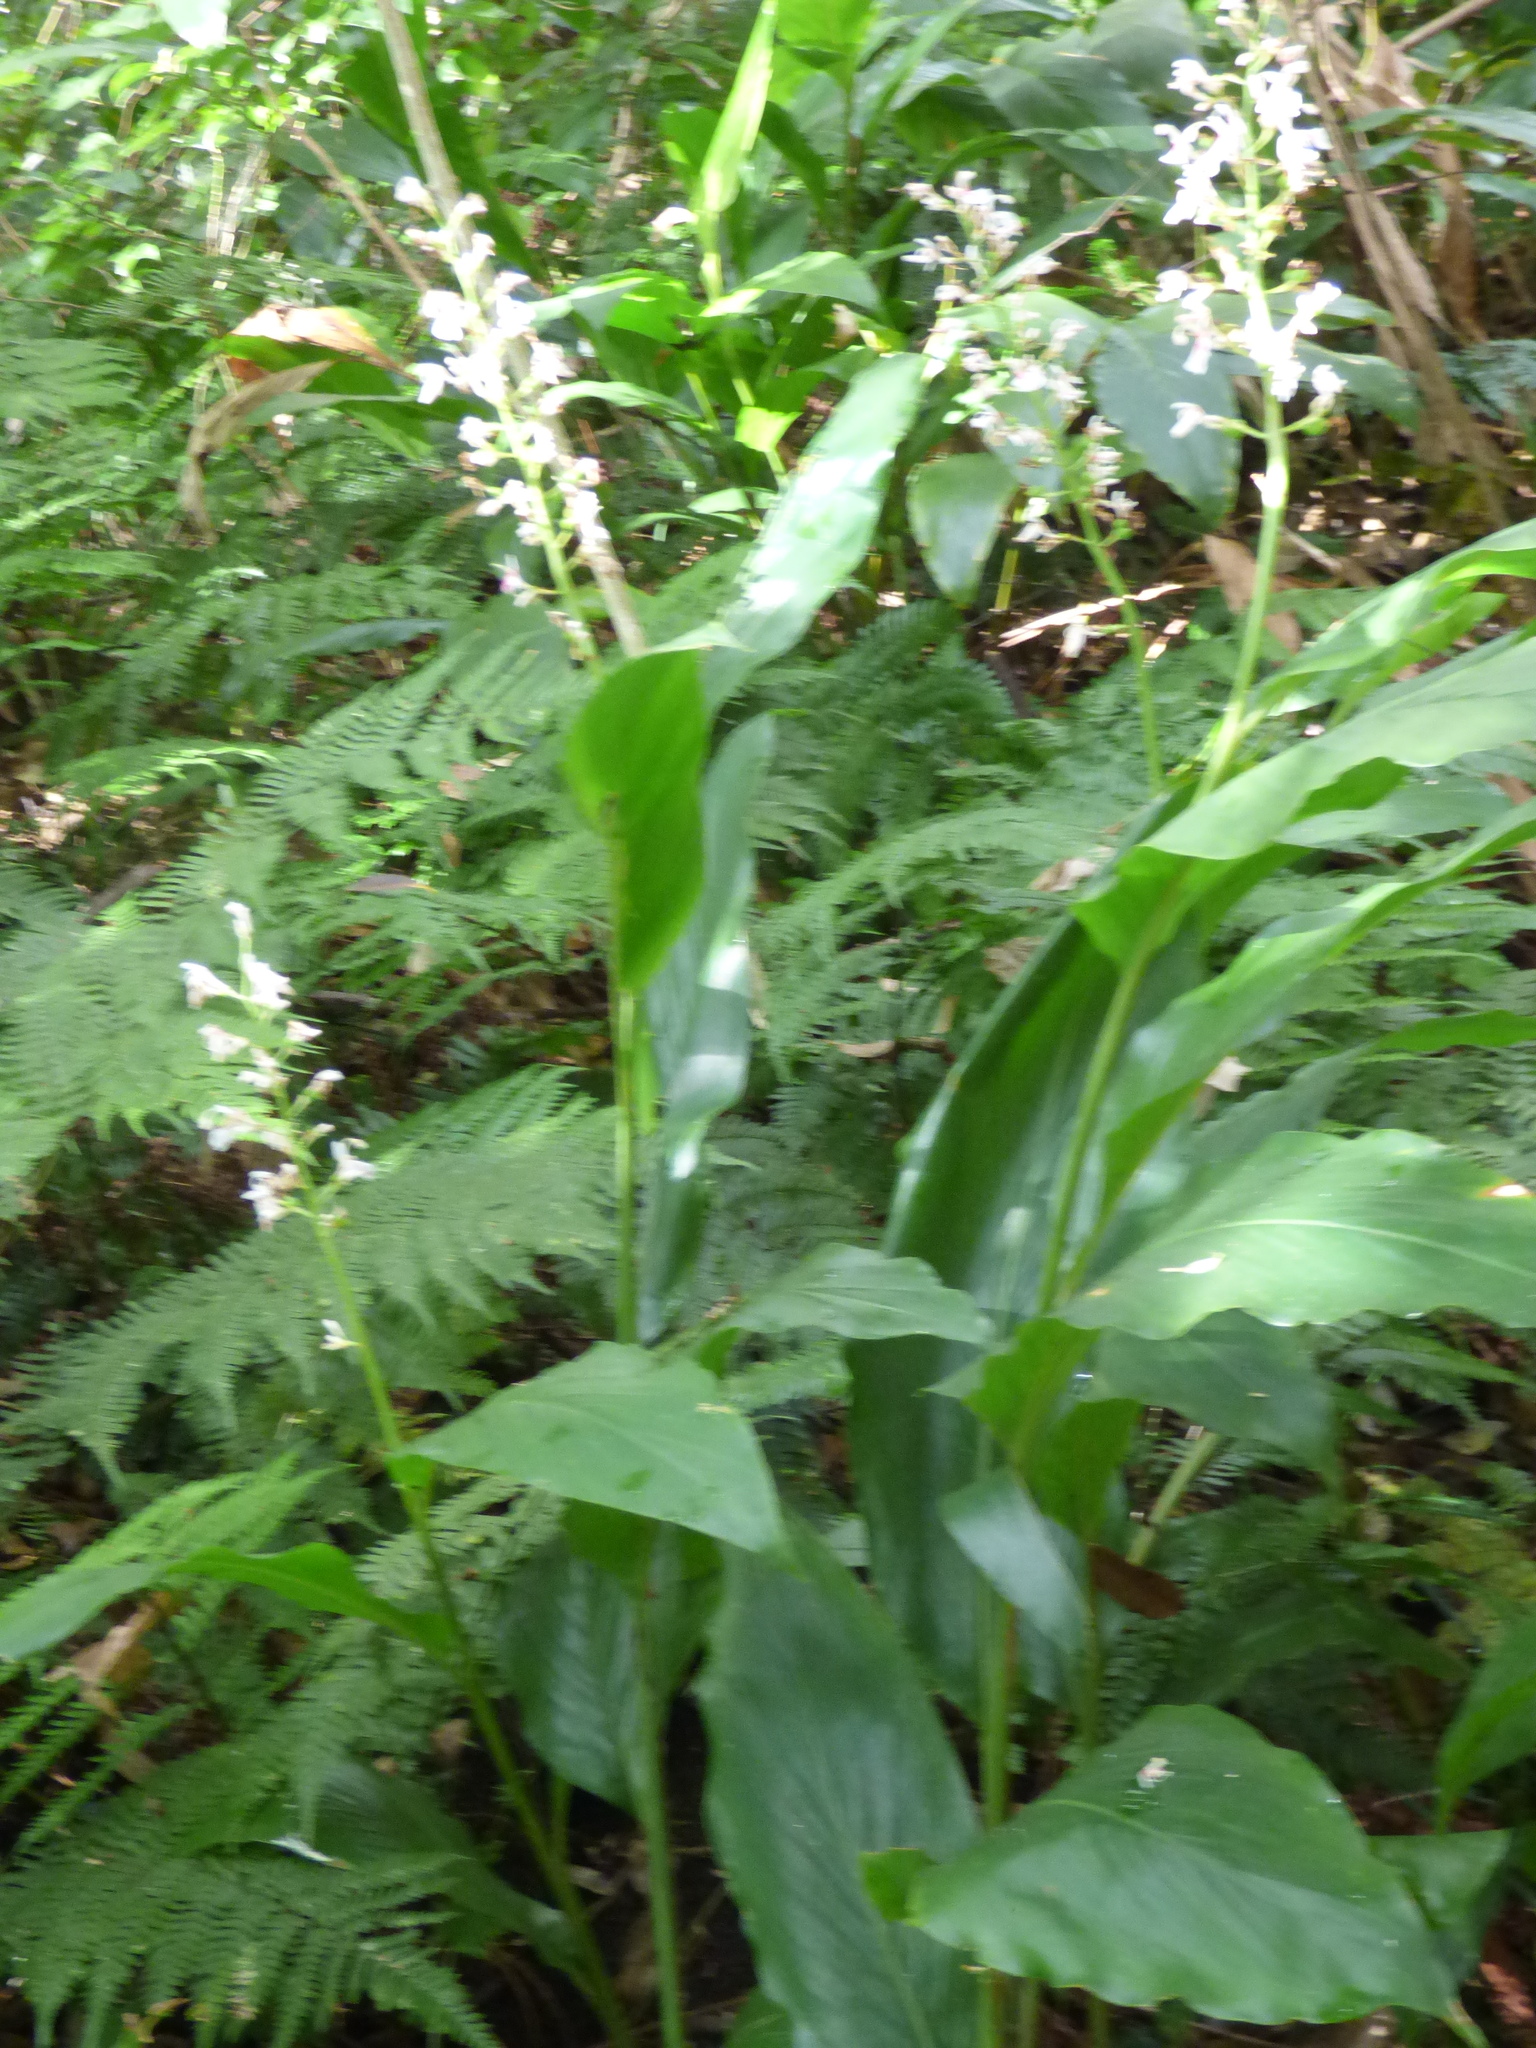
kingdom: Plantae
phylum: Tracheophyta
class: Liliopsida
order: Zingiberales
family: Zingiberaceae
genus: Alpinia
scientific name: Alpinia intermedia
